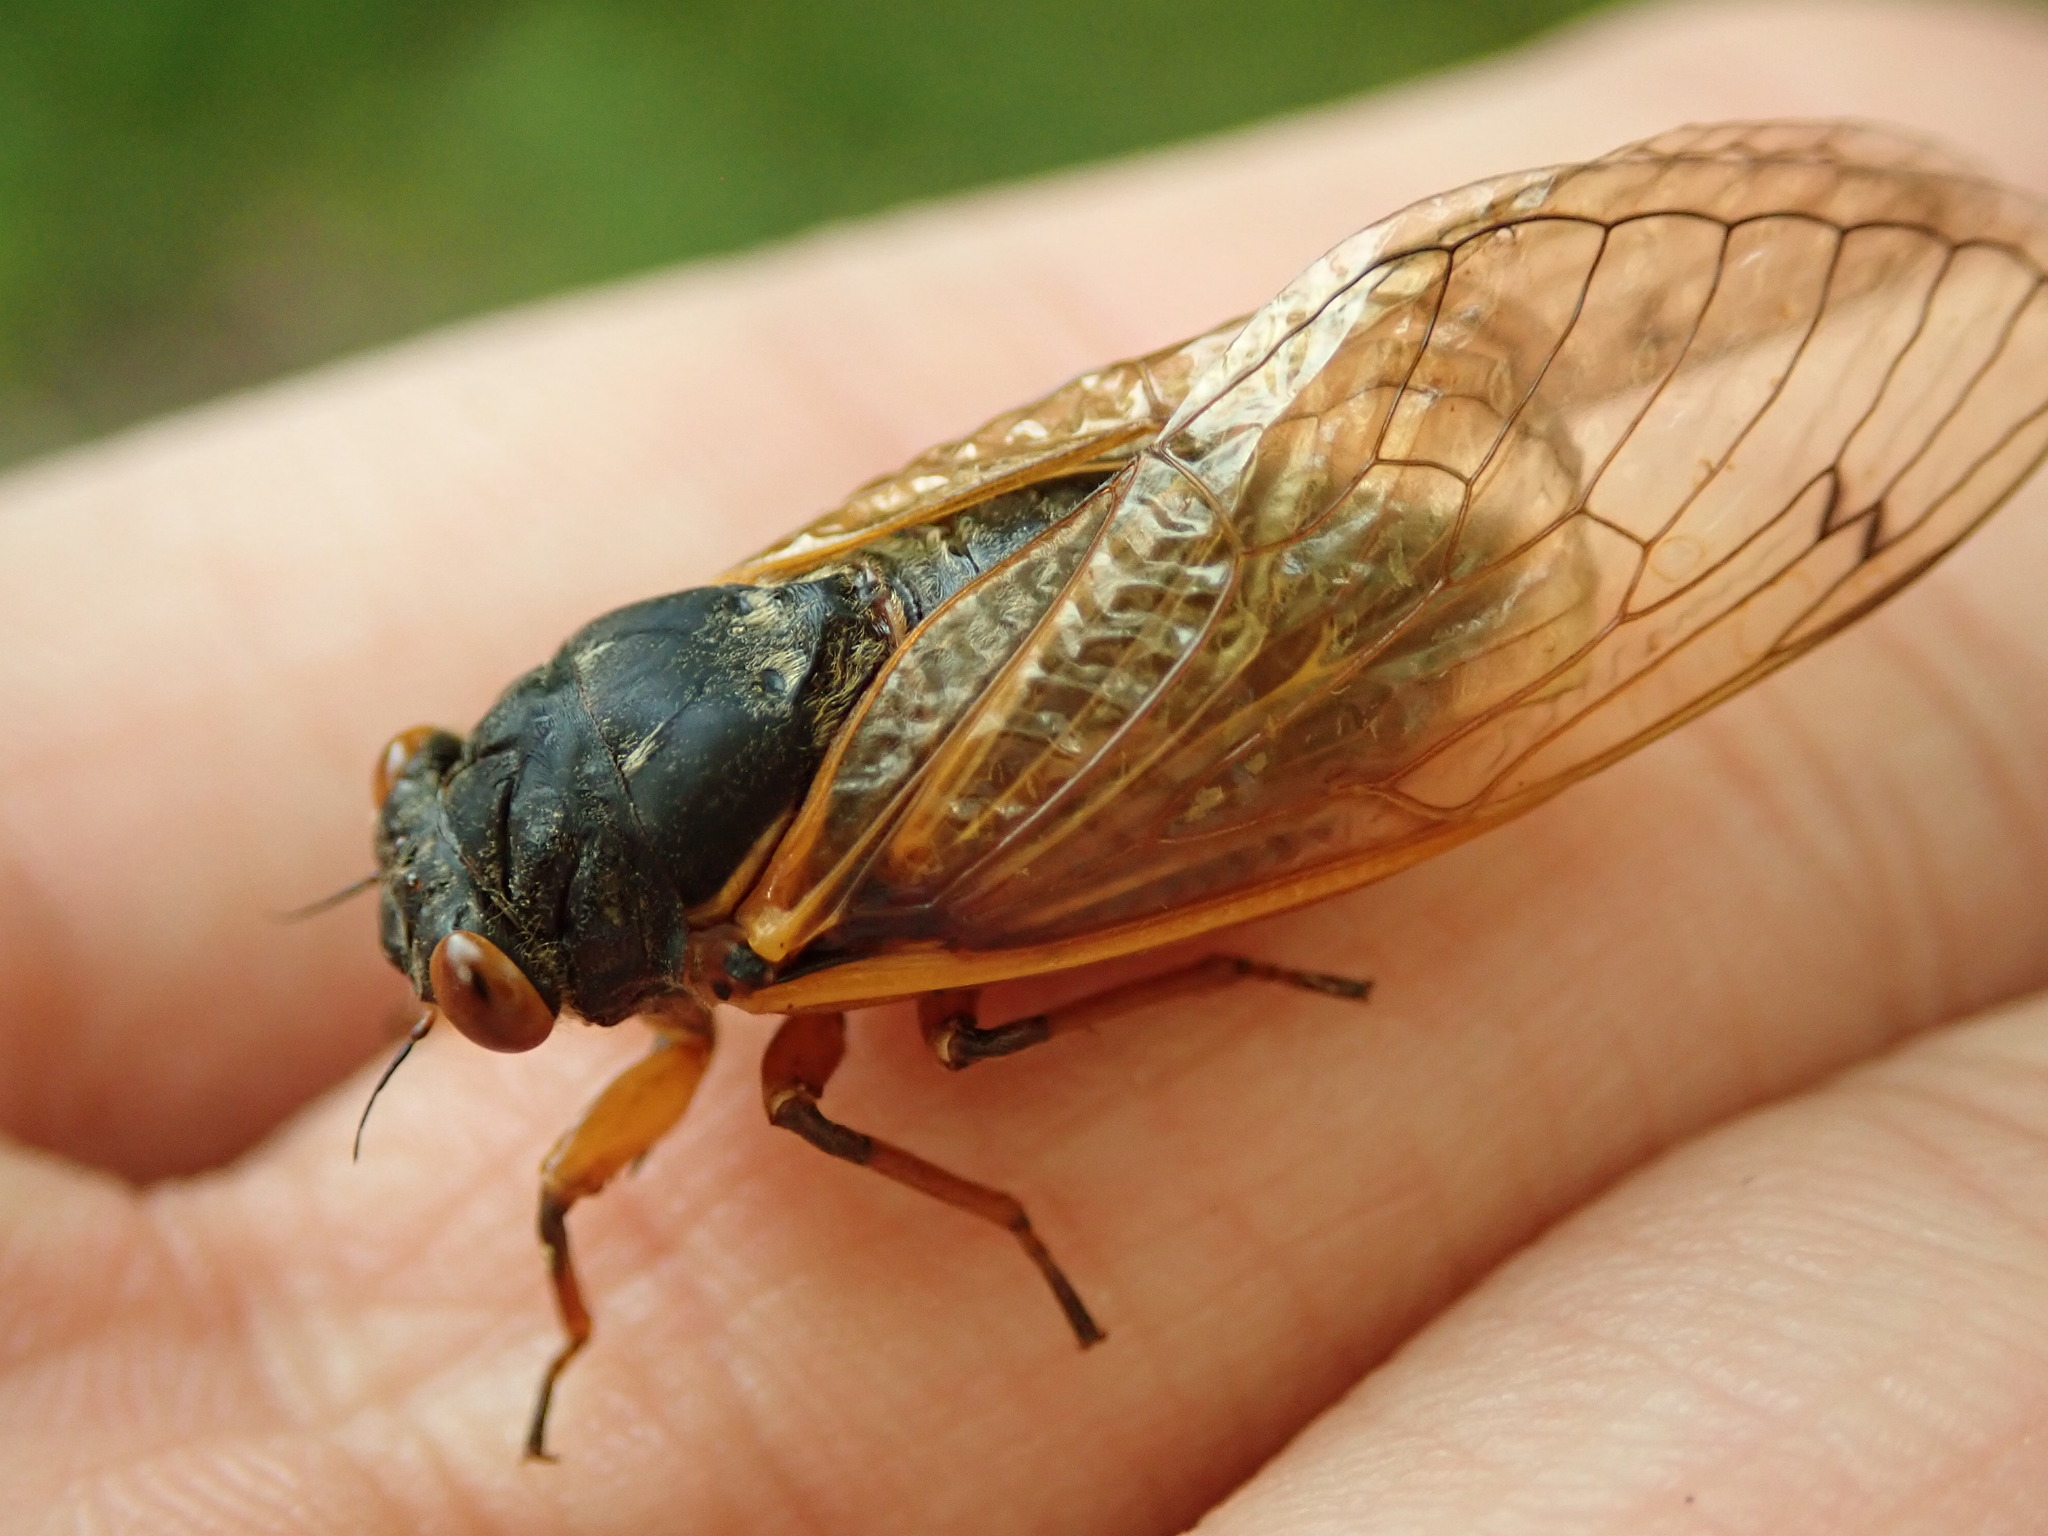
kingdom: Animalia
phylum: Arthropoda
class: Insecta
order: Hemiptera
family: Cicadidae
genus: Magicicada
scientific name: Magicicada cassini
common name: Cassin's 17-year cicada
